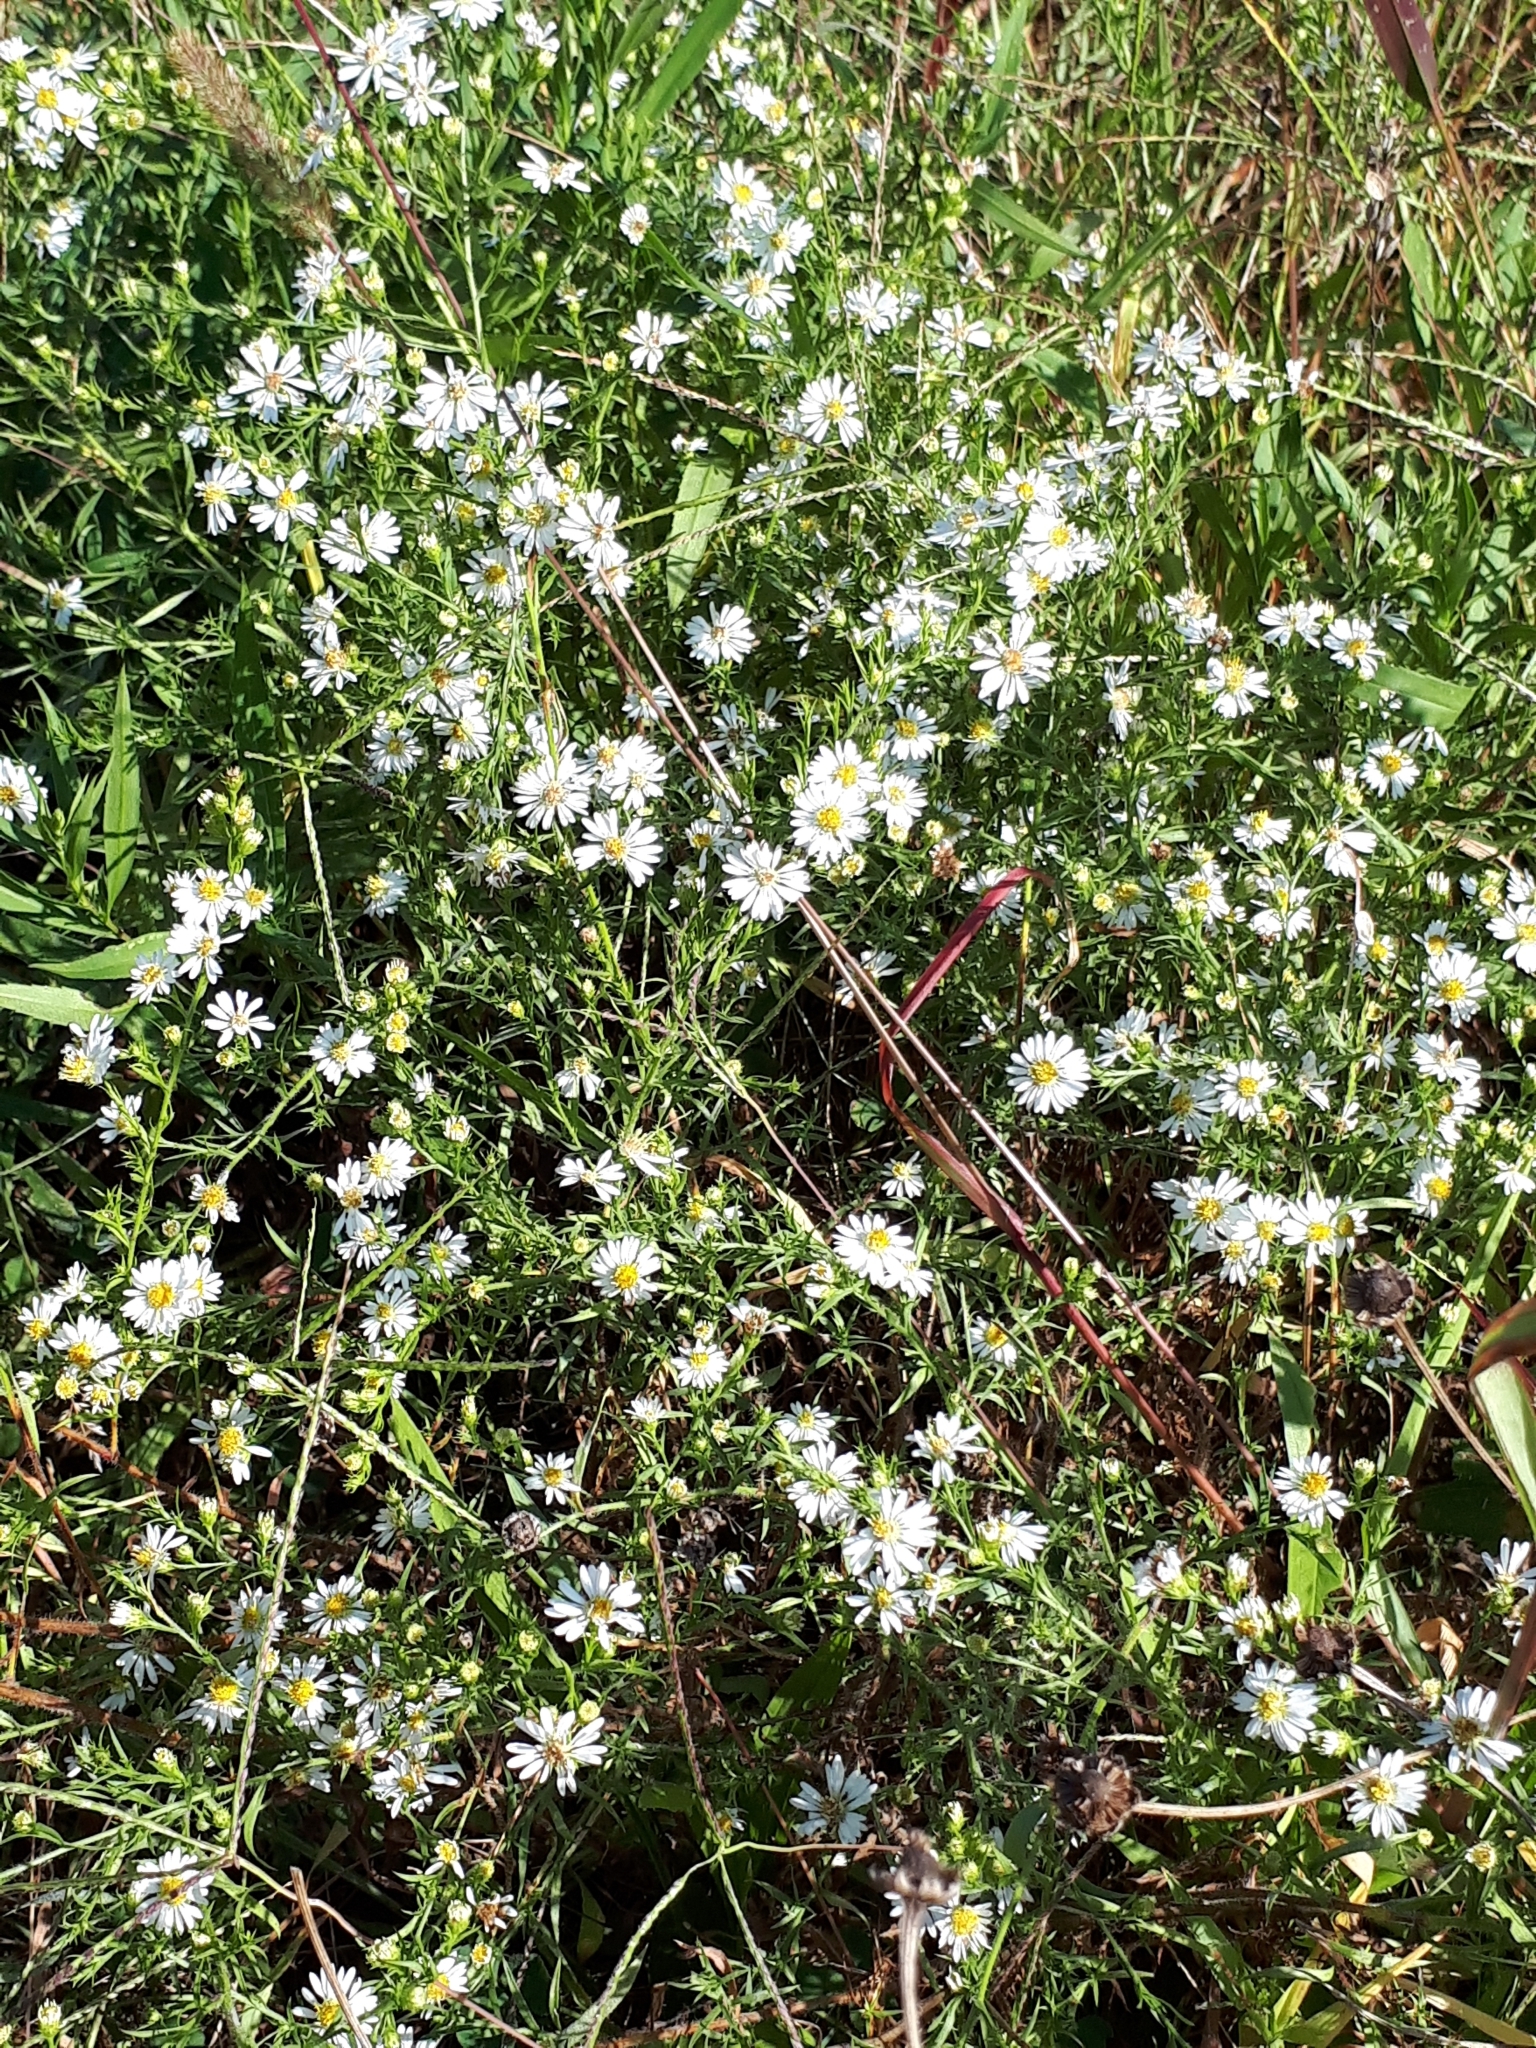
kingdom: Plantae
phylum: Tracheophyta
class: Magnoliopsida
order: Asterales
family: Asteraceae
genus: Symphyotrichum
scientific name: Symphyotrichum lanceolatum
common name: Panicled aster
